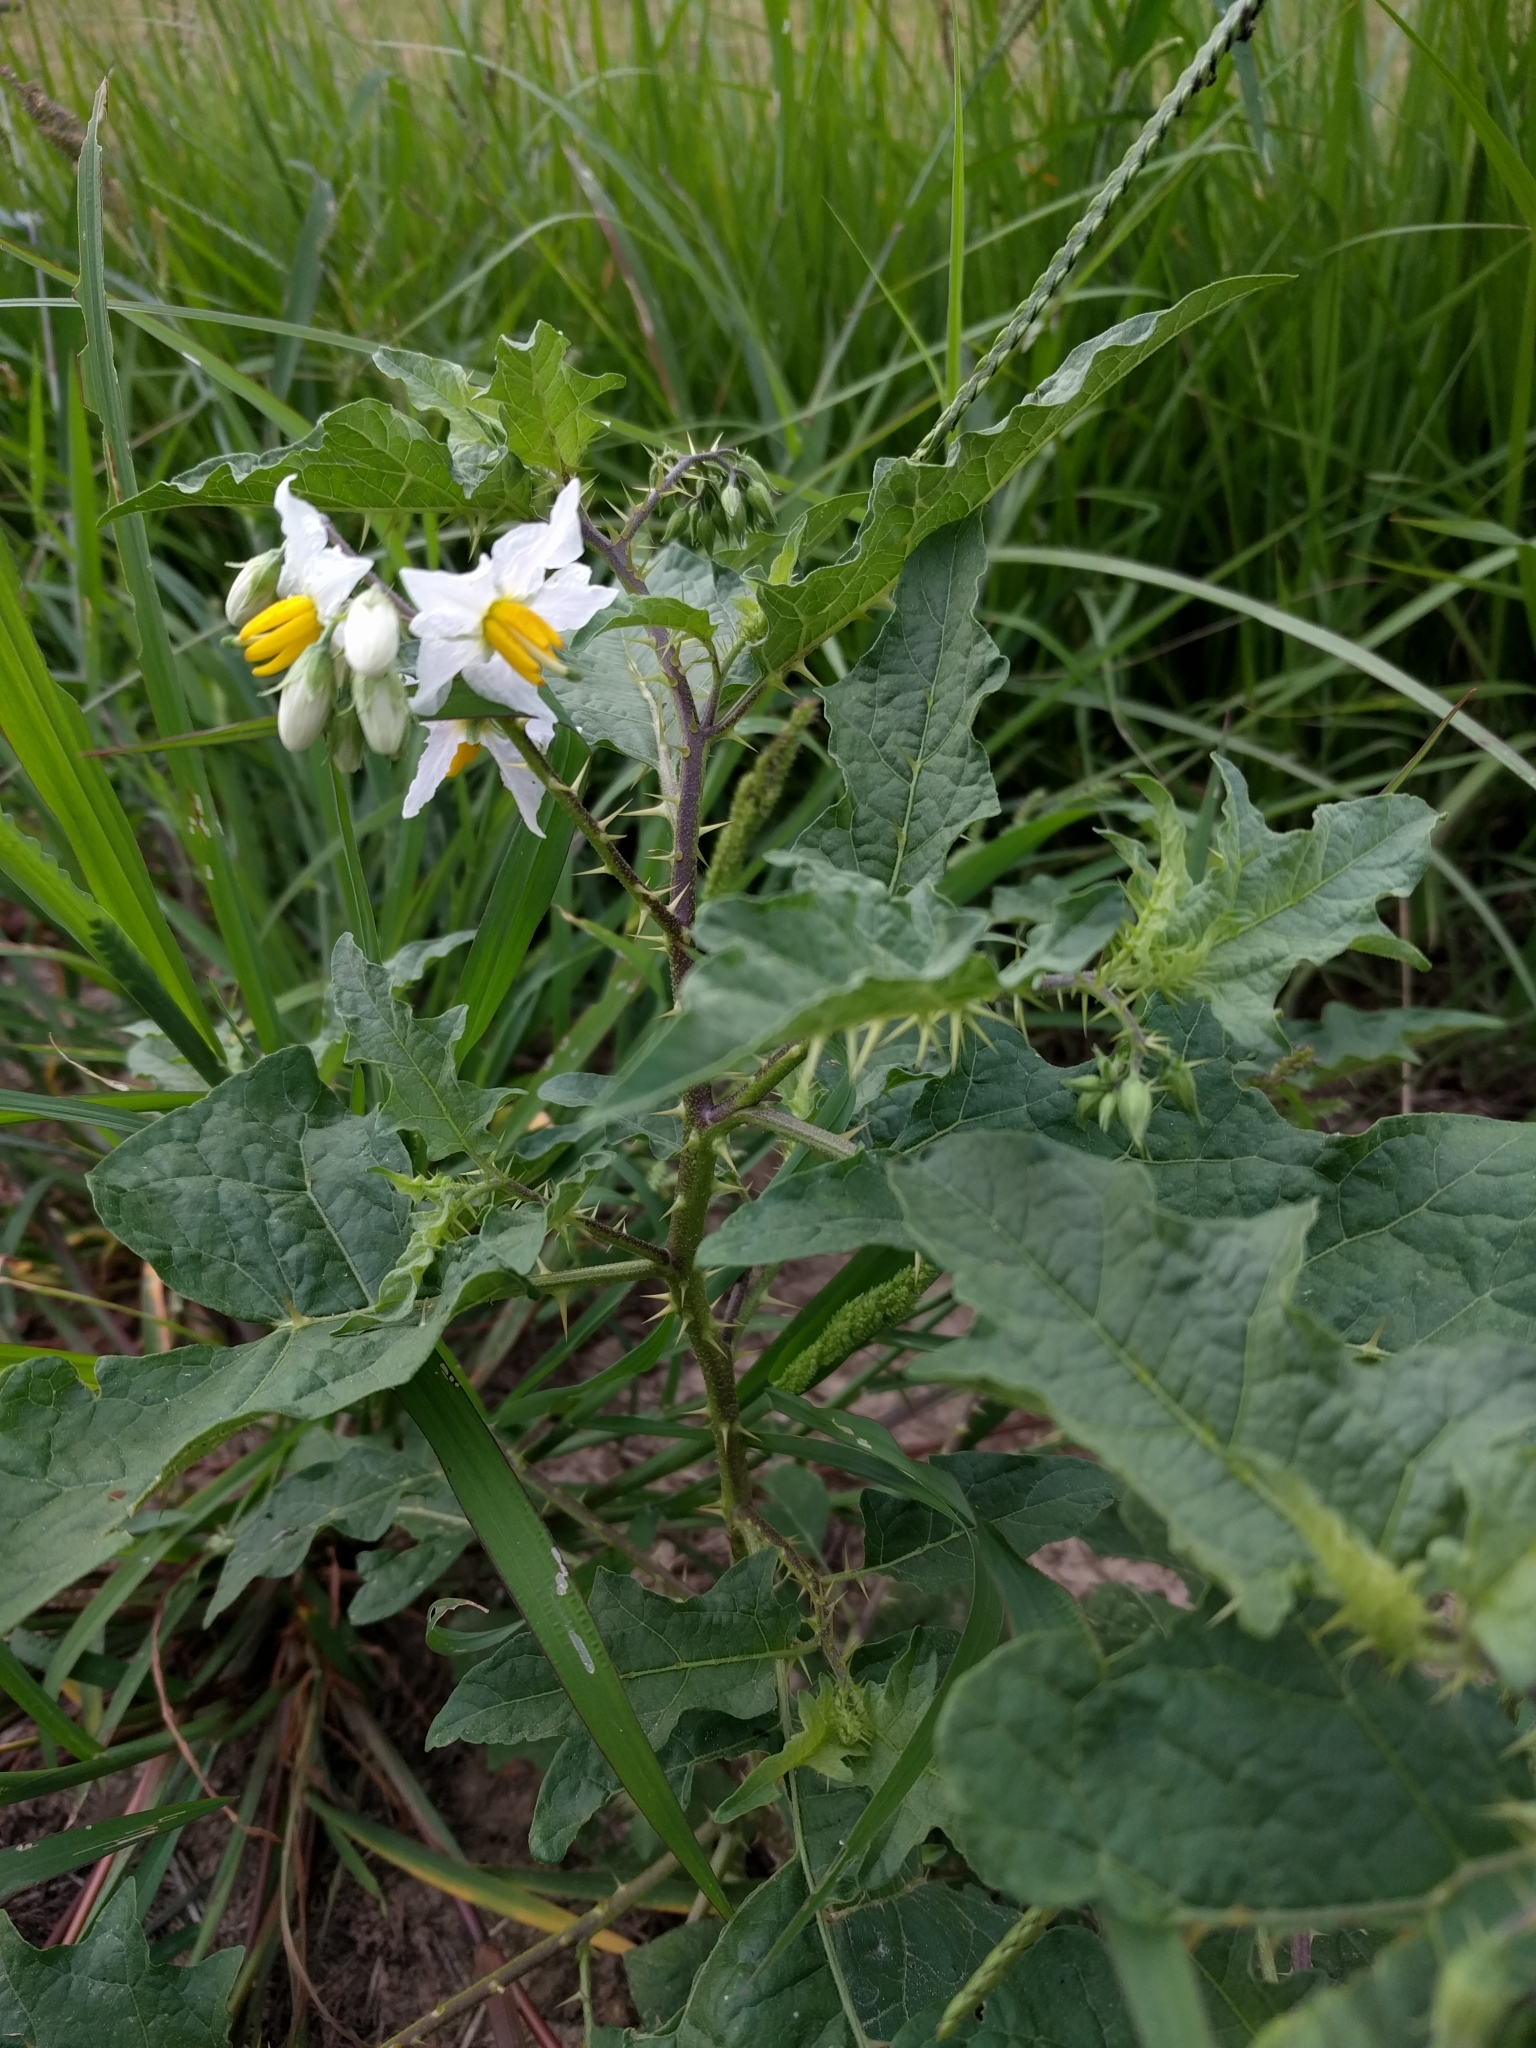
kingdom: Plantae
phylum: Tracheophyta
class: Magnoliopsida
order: Solanales
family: Solanaceae
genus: Solanum
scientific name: Solanum carolinense
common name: Horse-nettle
